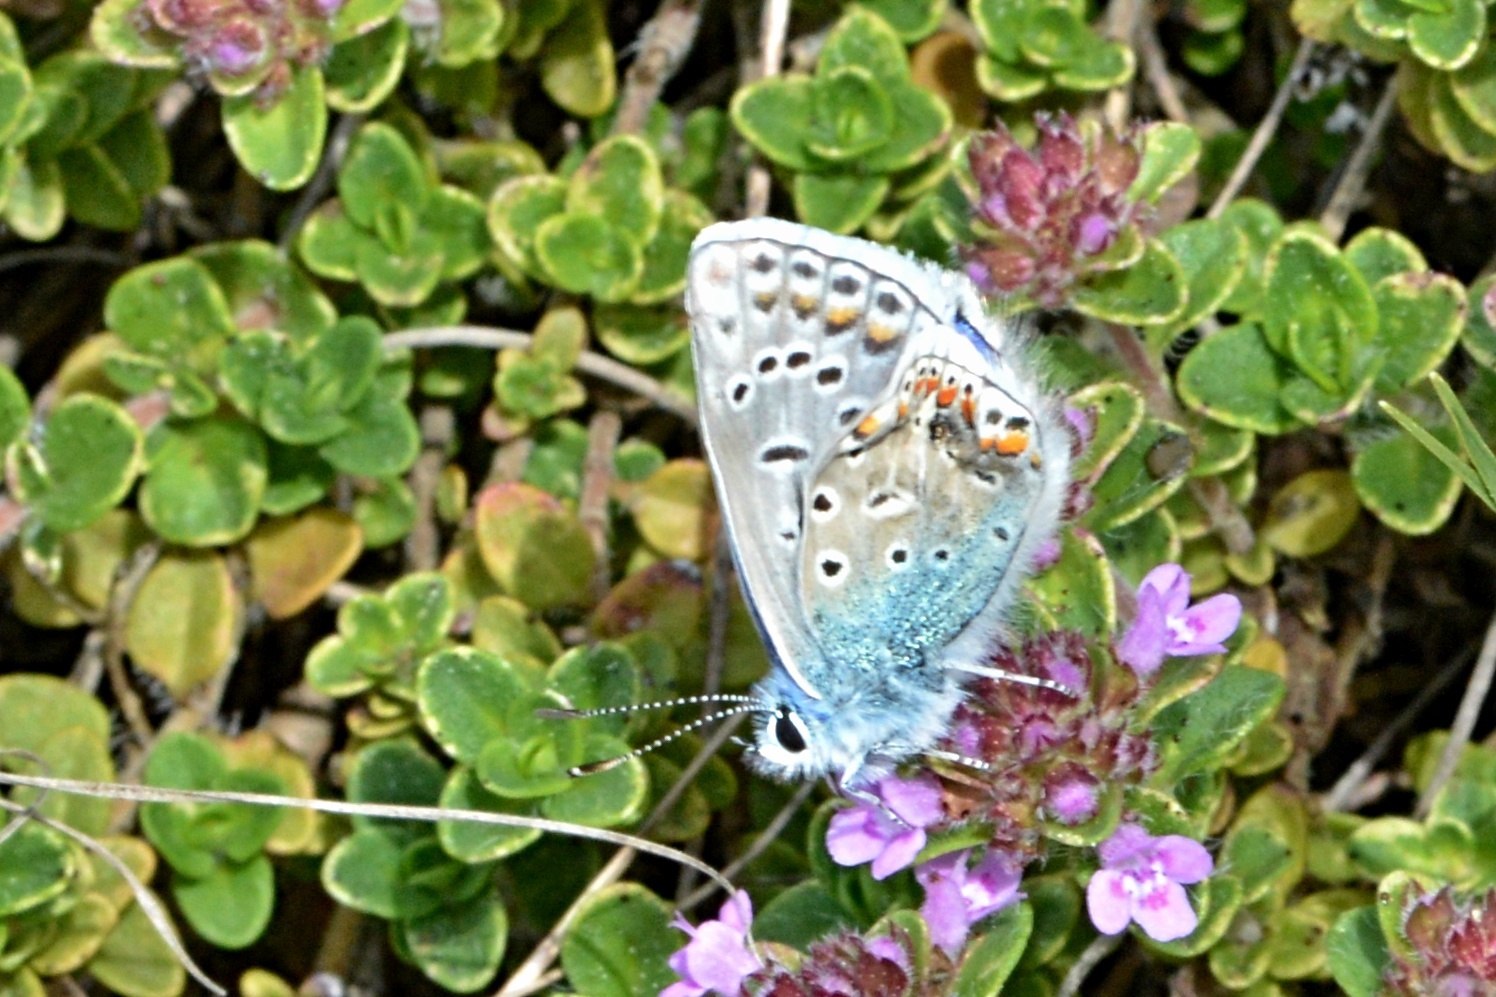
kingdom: Animalia
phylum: Arthropoda
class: Insecta
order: Lepidoptera
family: Lycaenidae
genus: Polyommatus
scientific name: Polyommatus icarus
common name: Common blue
